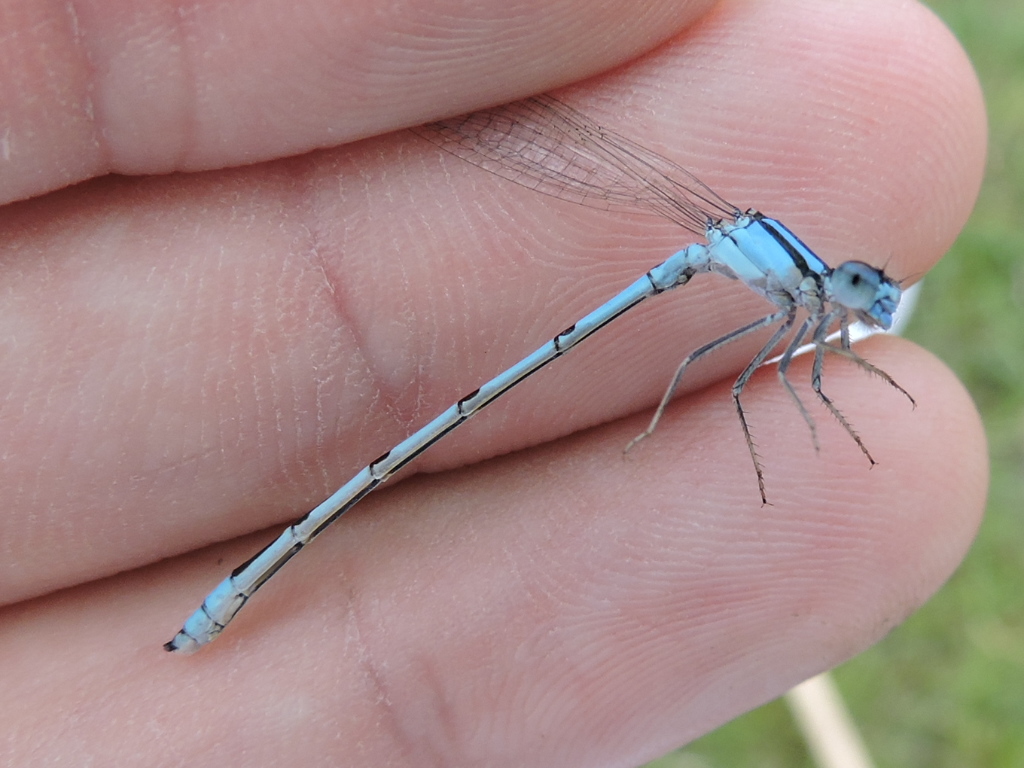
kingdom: Animalia
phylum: Arthropoda
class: Insecta
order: Odonata
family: Coenagrionidae
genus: Enallagma
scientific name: Enallagma civile
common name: Damselfly
